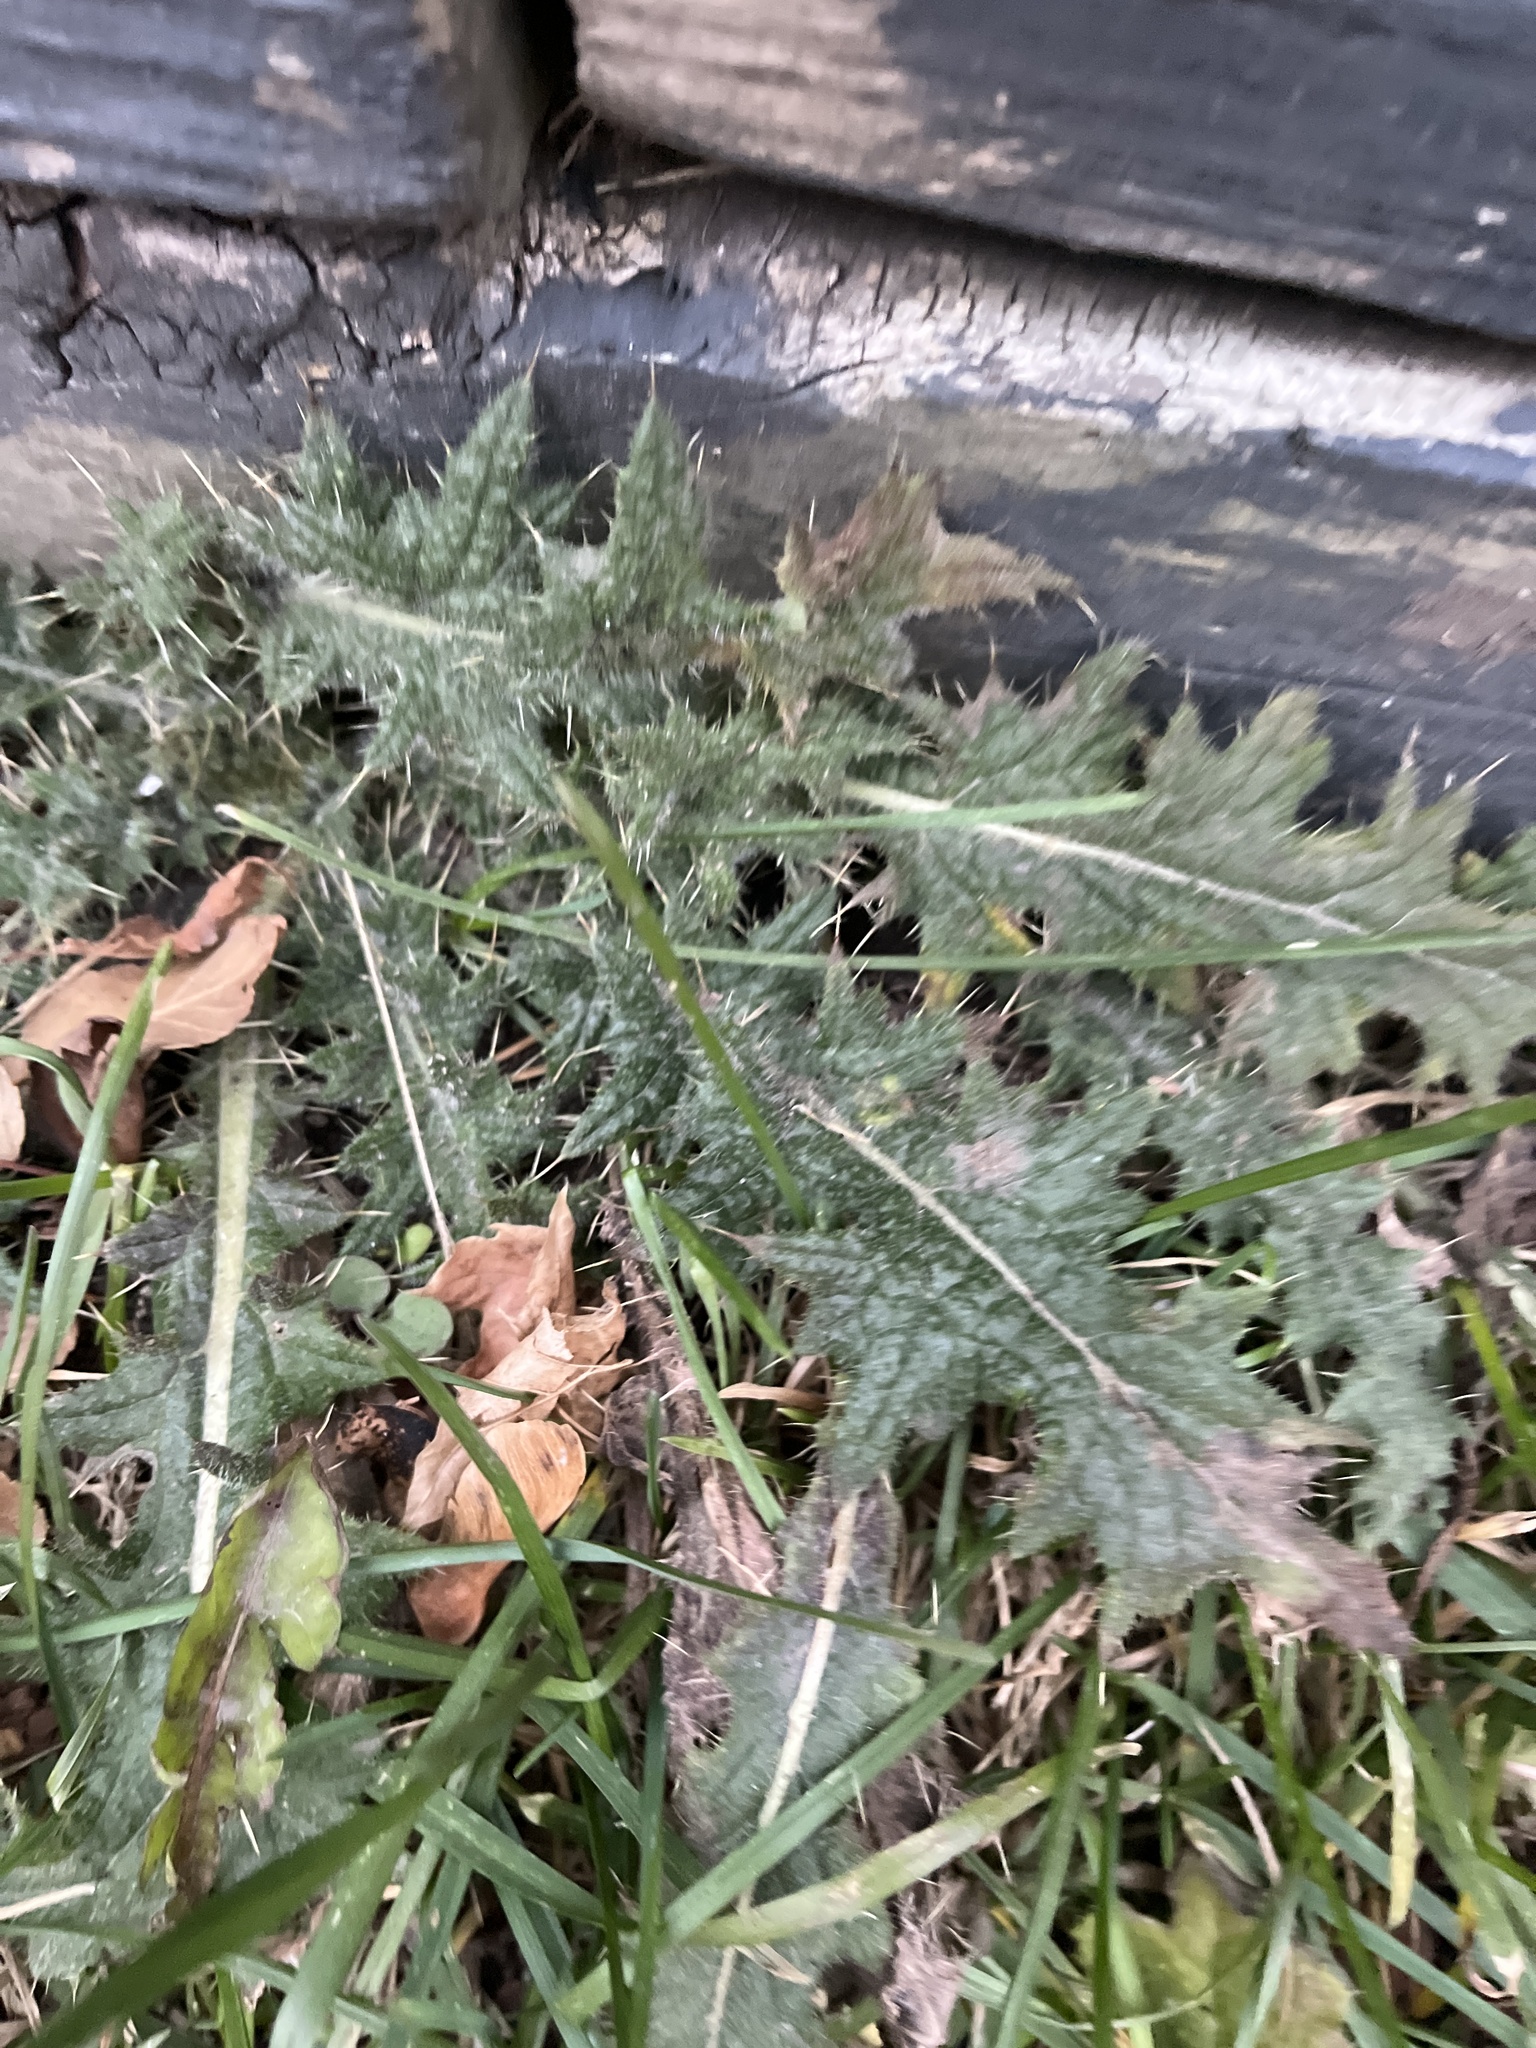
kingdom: Plantae
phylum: Tracheophyta
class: Magnoliopsida
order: Asterales
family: Asteraceae
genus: Cirsium
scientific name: Cirsium vulgare
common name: Bull thistle
